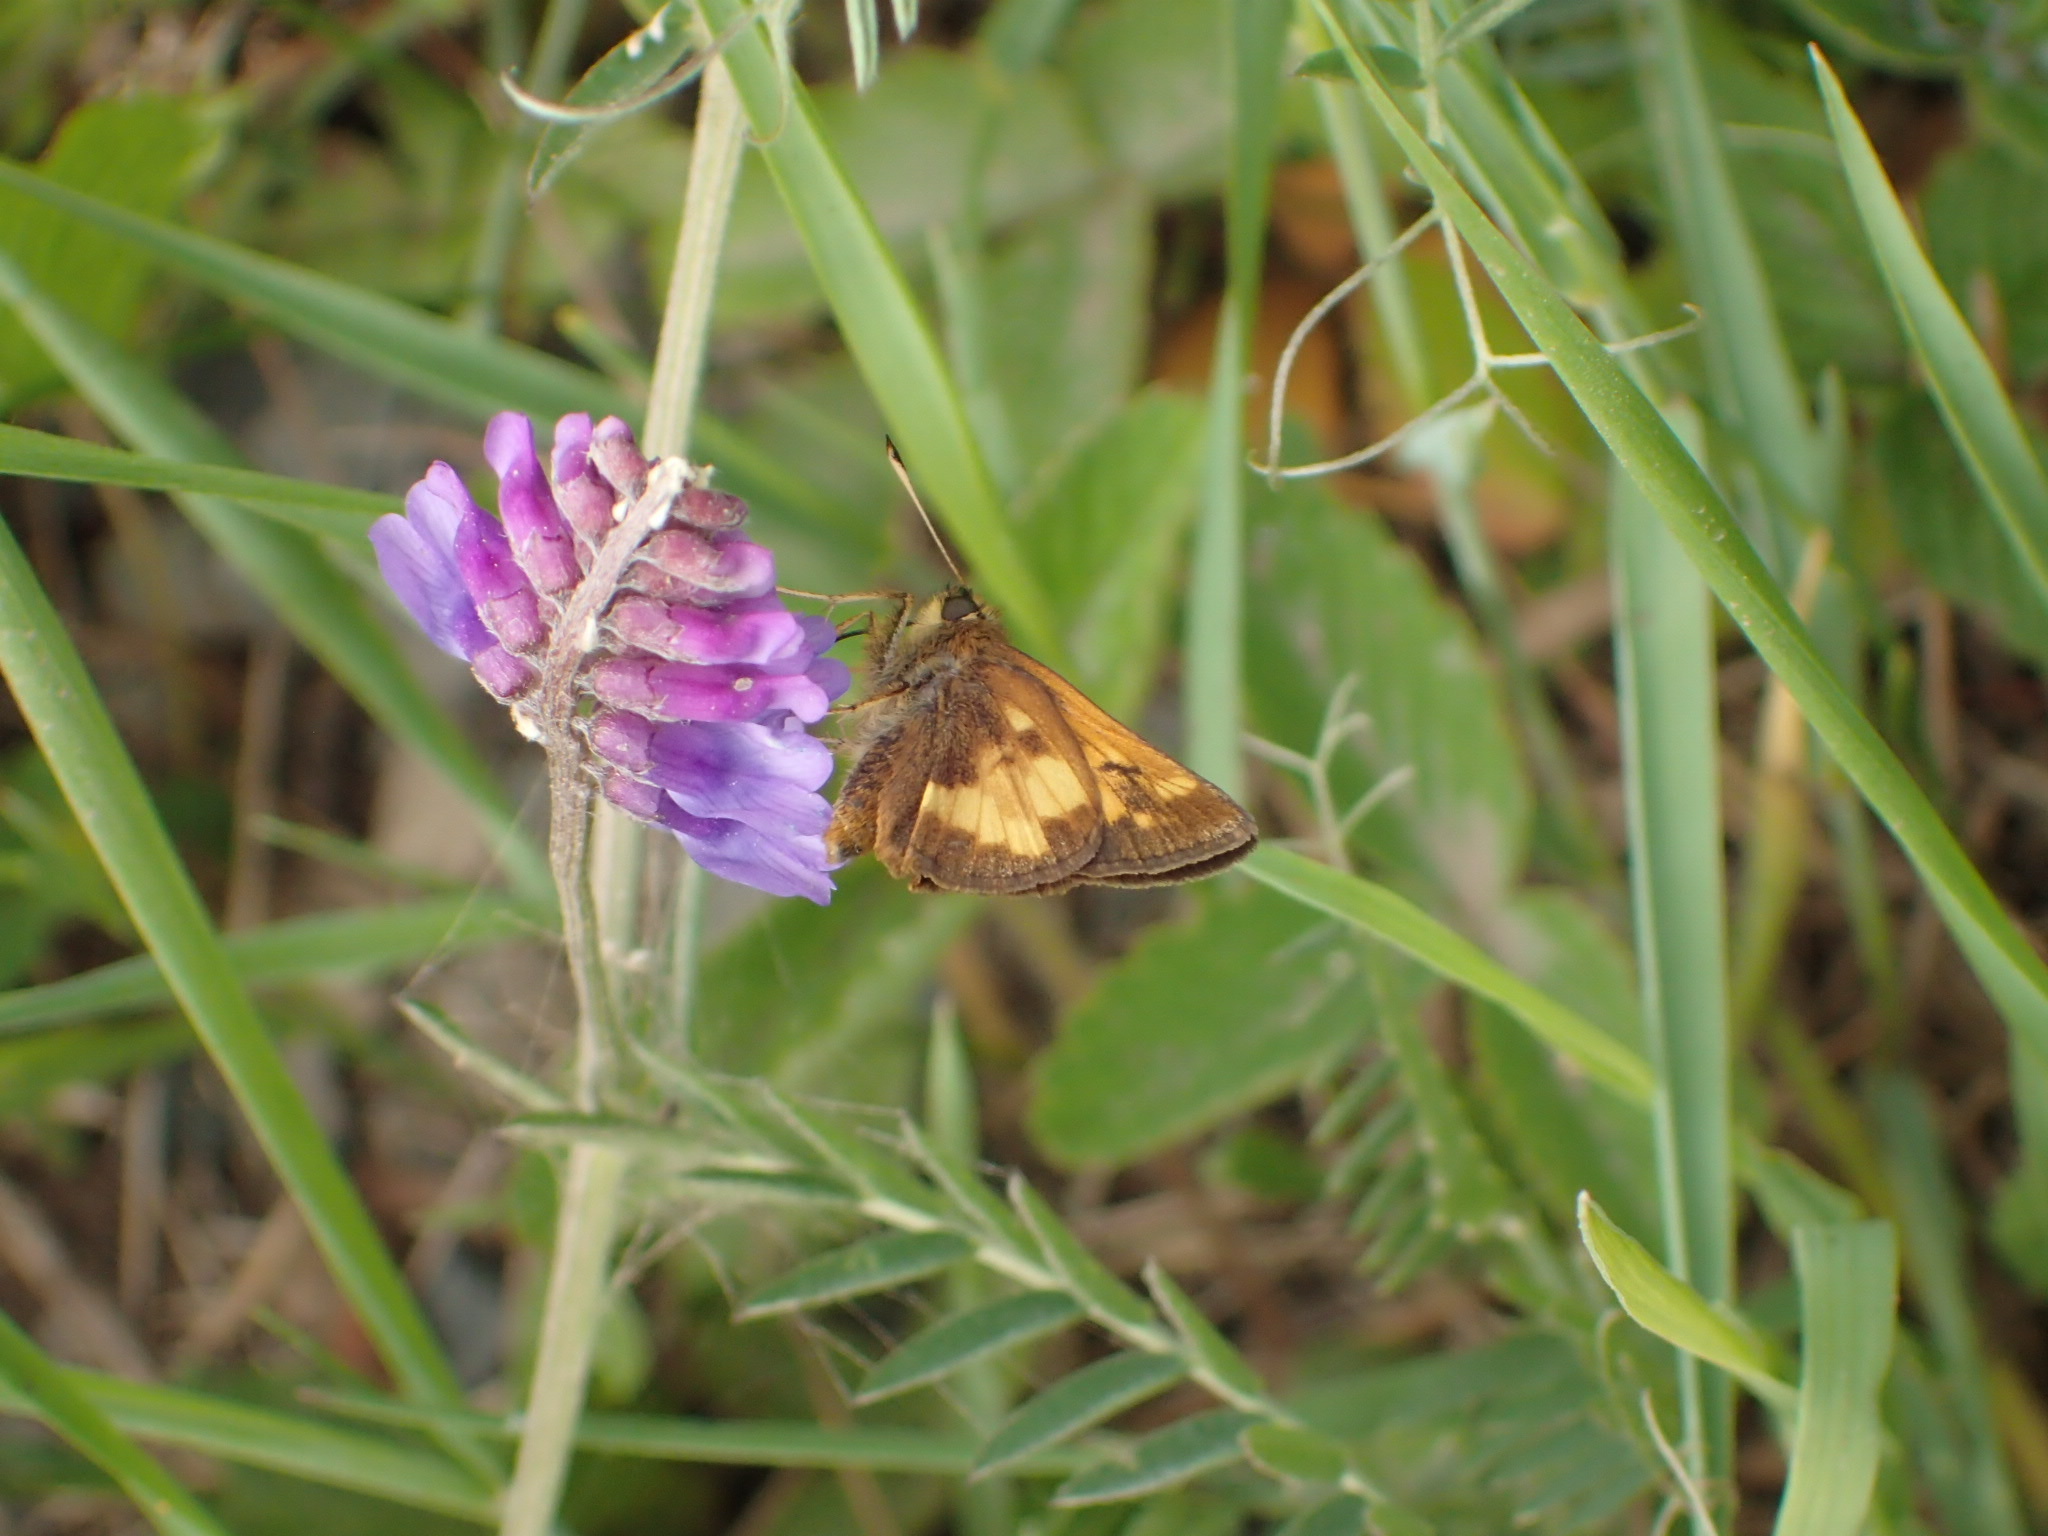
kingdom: Animalia
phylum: Arthropoda
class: Insecta
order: Lepidoptera
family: Hesperiidae
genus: Lon
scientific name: Lon hobomok
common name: Hobomok skipper
